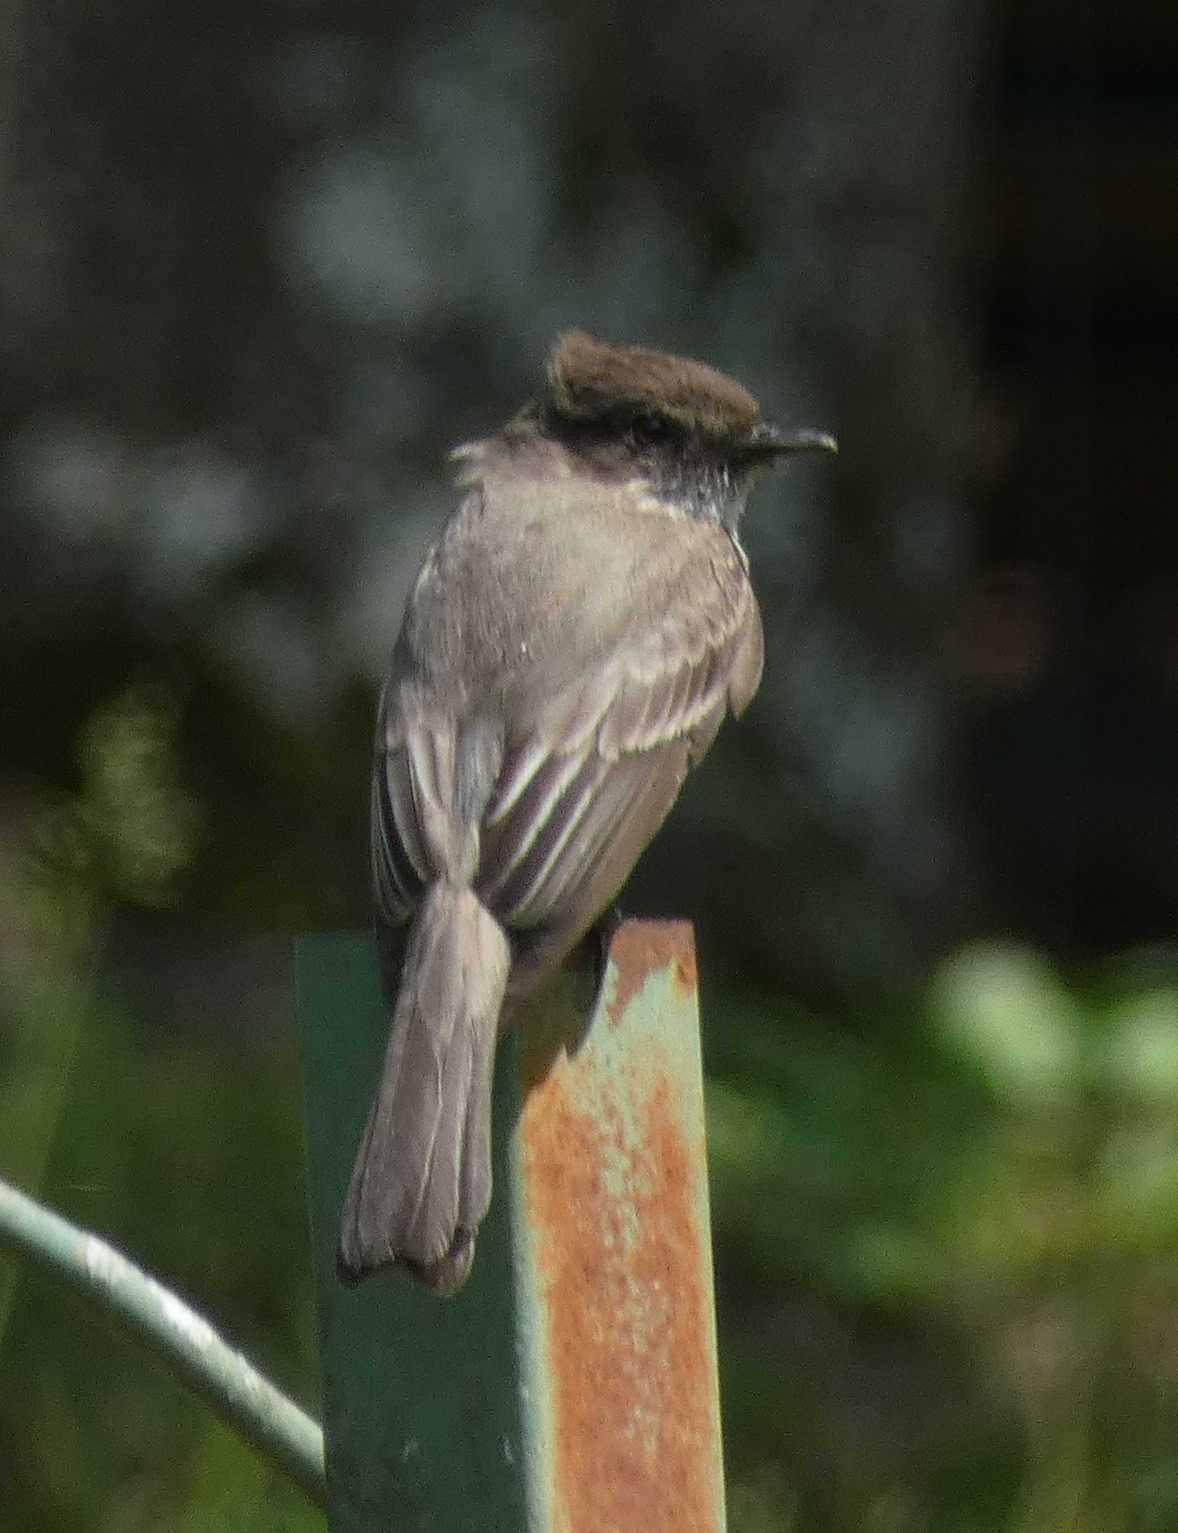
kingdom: Animalia
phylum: Chordata
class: Aves
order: Passeriformes
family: Tyrannidae
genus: Sayornis
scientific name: Sayornis phoebe
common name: Eastern phoebe
